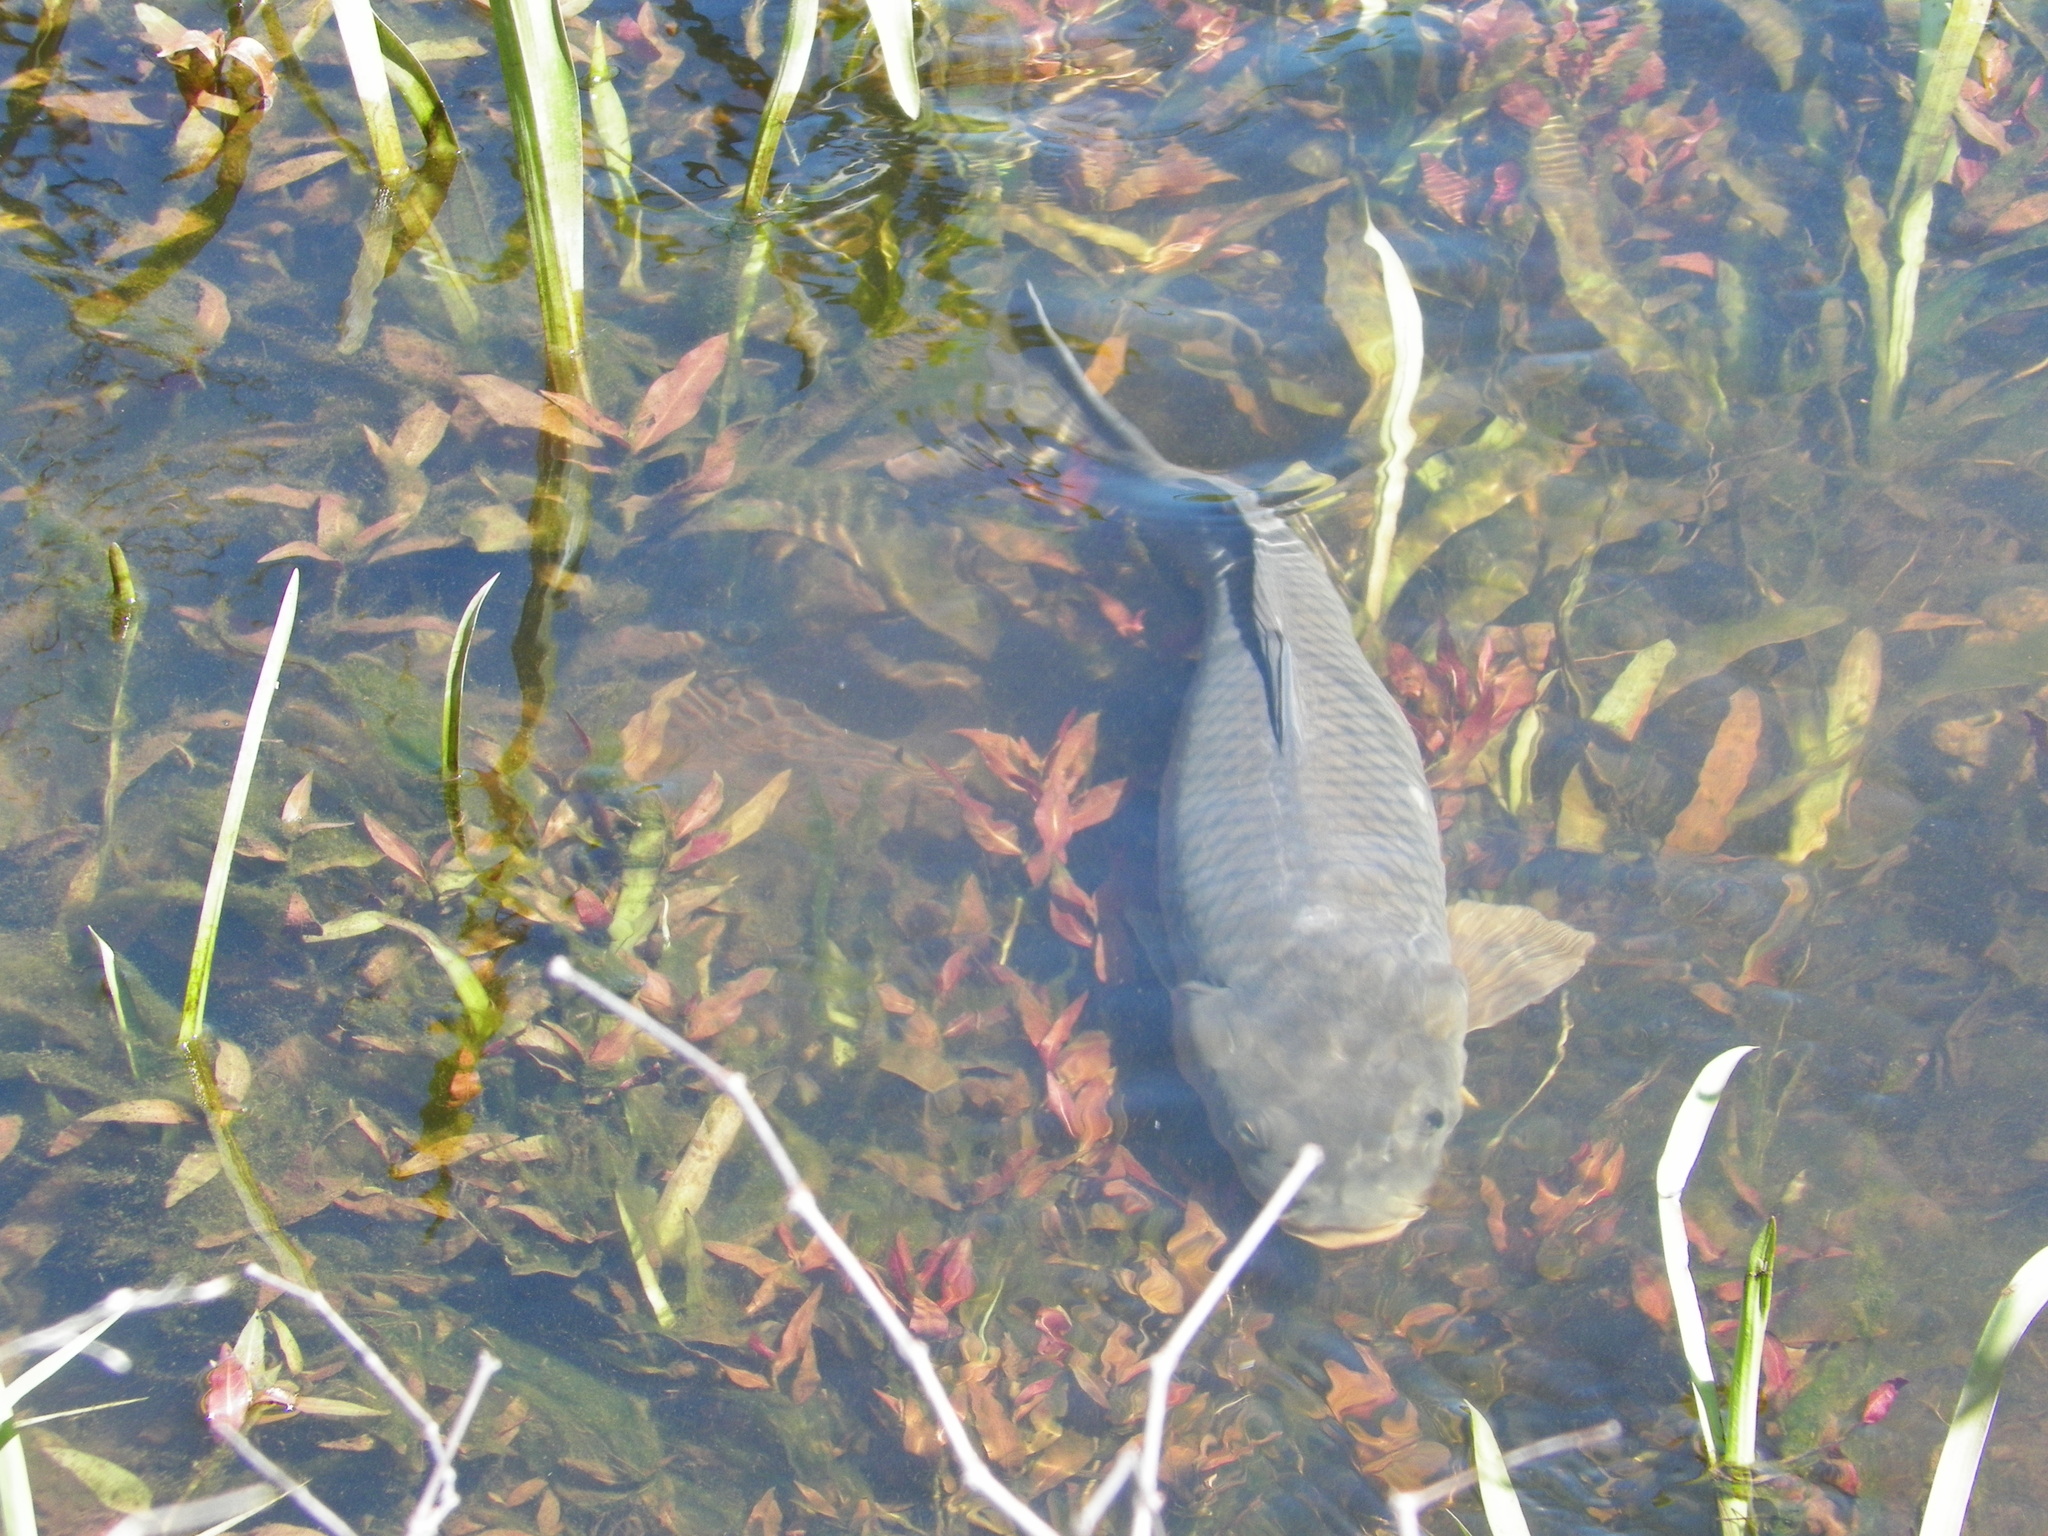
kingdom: Animalia
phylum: Chordata
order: Cypriniformes
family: Cyprinidae
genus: Cyprinus
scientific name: Cyprinus carpio
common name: Common carp
